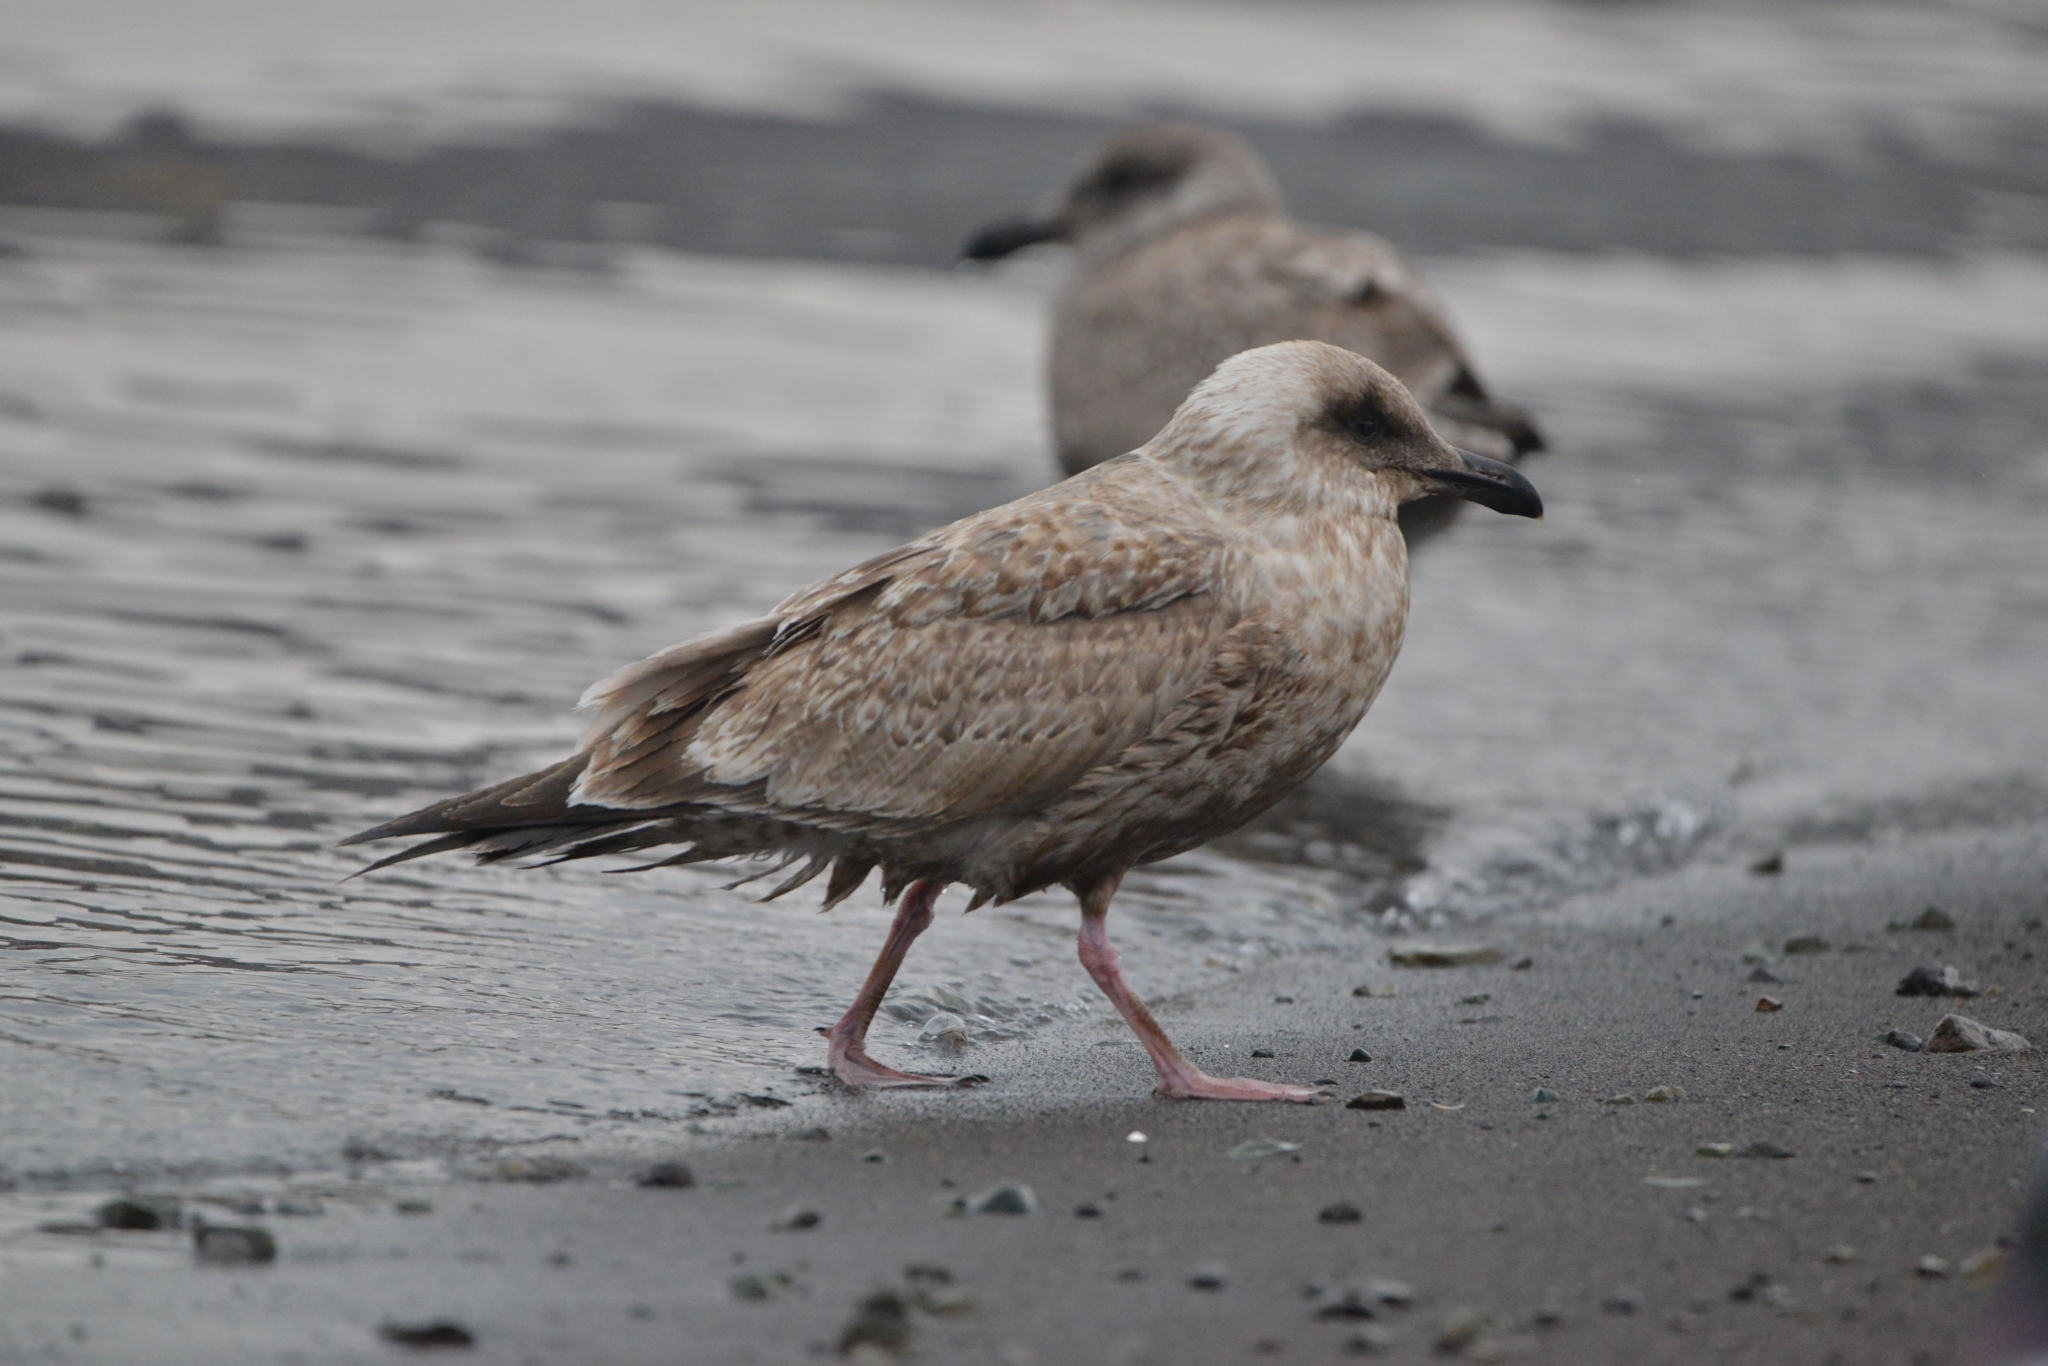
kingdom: Animalia
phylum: Chordata
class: Aves
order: Charadriiformes
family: Laridae
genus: Larus
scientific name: Larus schistisagus
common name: Slaty-backed gull
